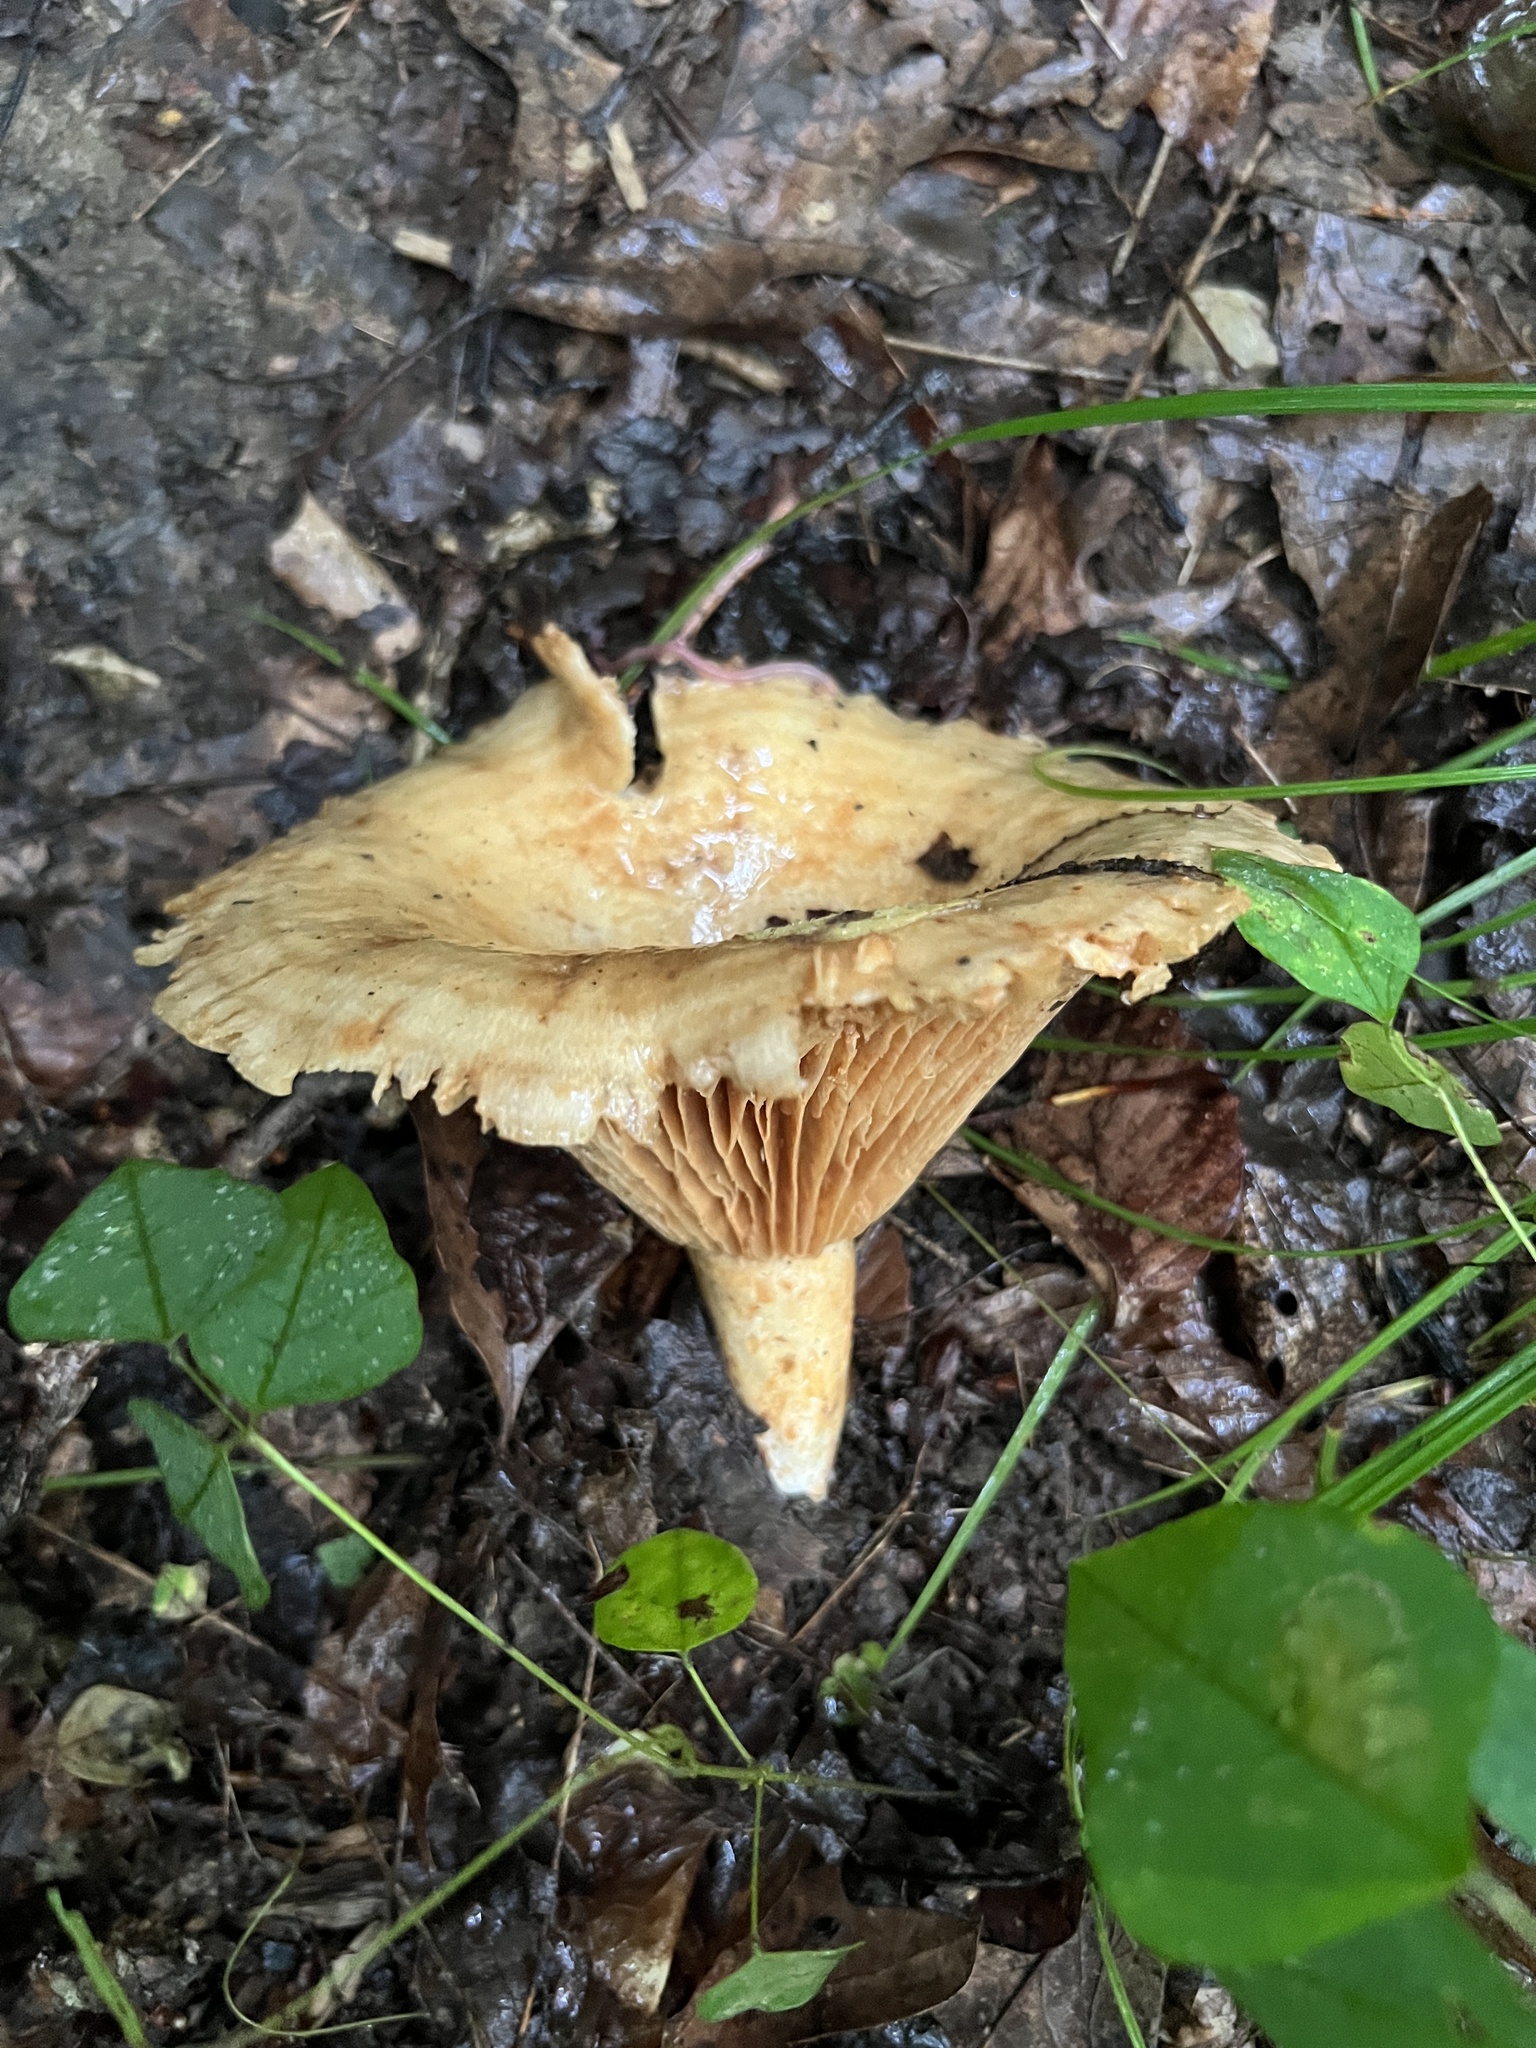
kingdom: Fungi
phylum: Basidiomycota
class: Agaricomycetes
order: Russulales
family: Russulaceae
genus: Lactarius
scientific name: Lactarius psammicola
